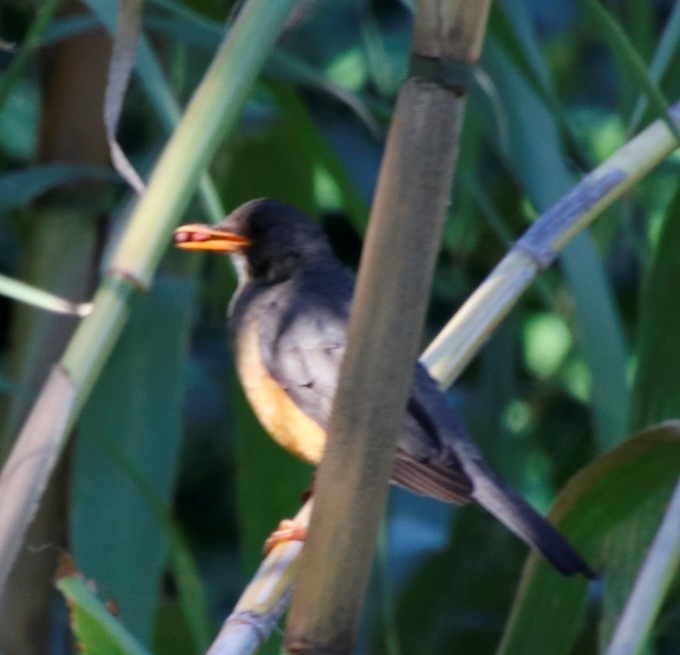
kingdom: Animalia
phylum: Chordata
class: Aves
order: Passeriformes
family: Turdidae
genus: Turdus
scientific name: Turdus olivaceus
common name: Olive thrush
